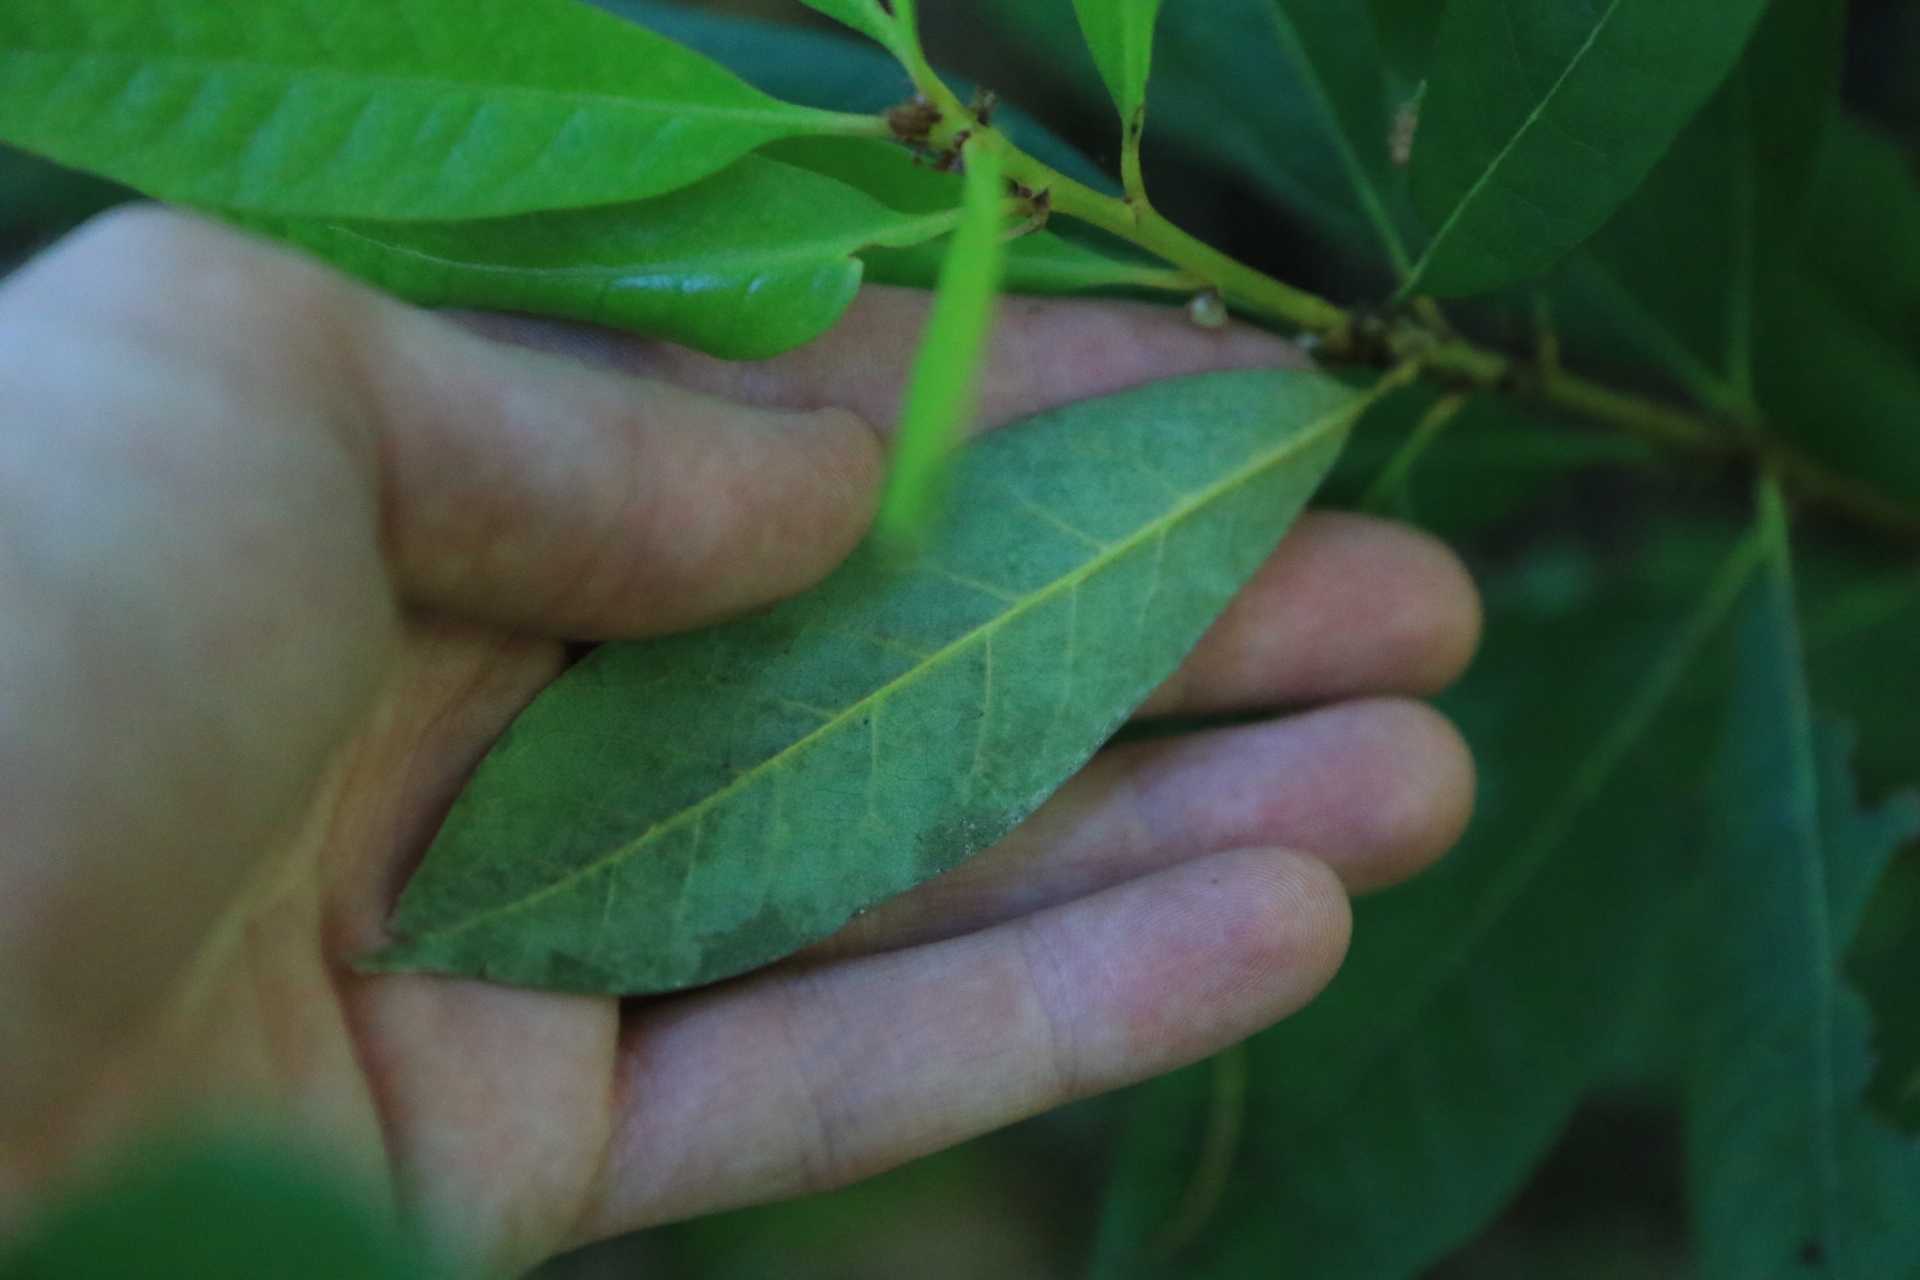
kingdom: Plantae
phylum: Tracheophyta
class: Magnoliopsida
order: Fagales
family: Fagaceae
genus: Chrysolepis
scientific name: Chrysolepis chrysophylla
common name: Giant chinquapin
